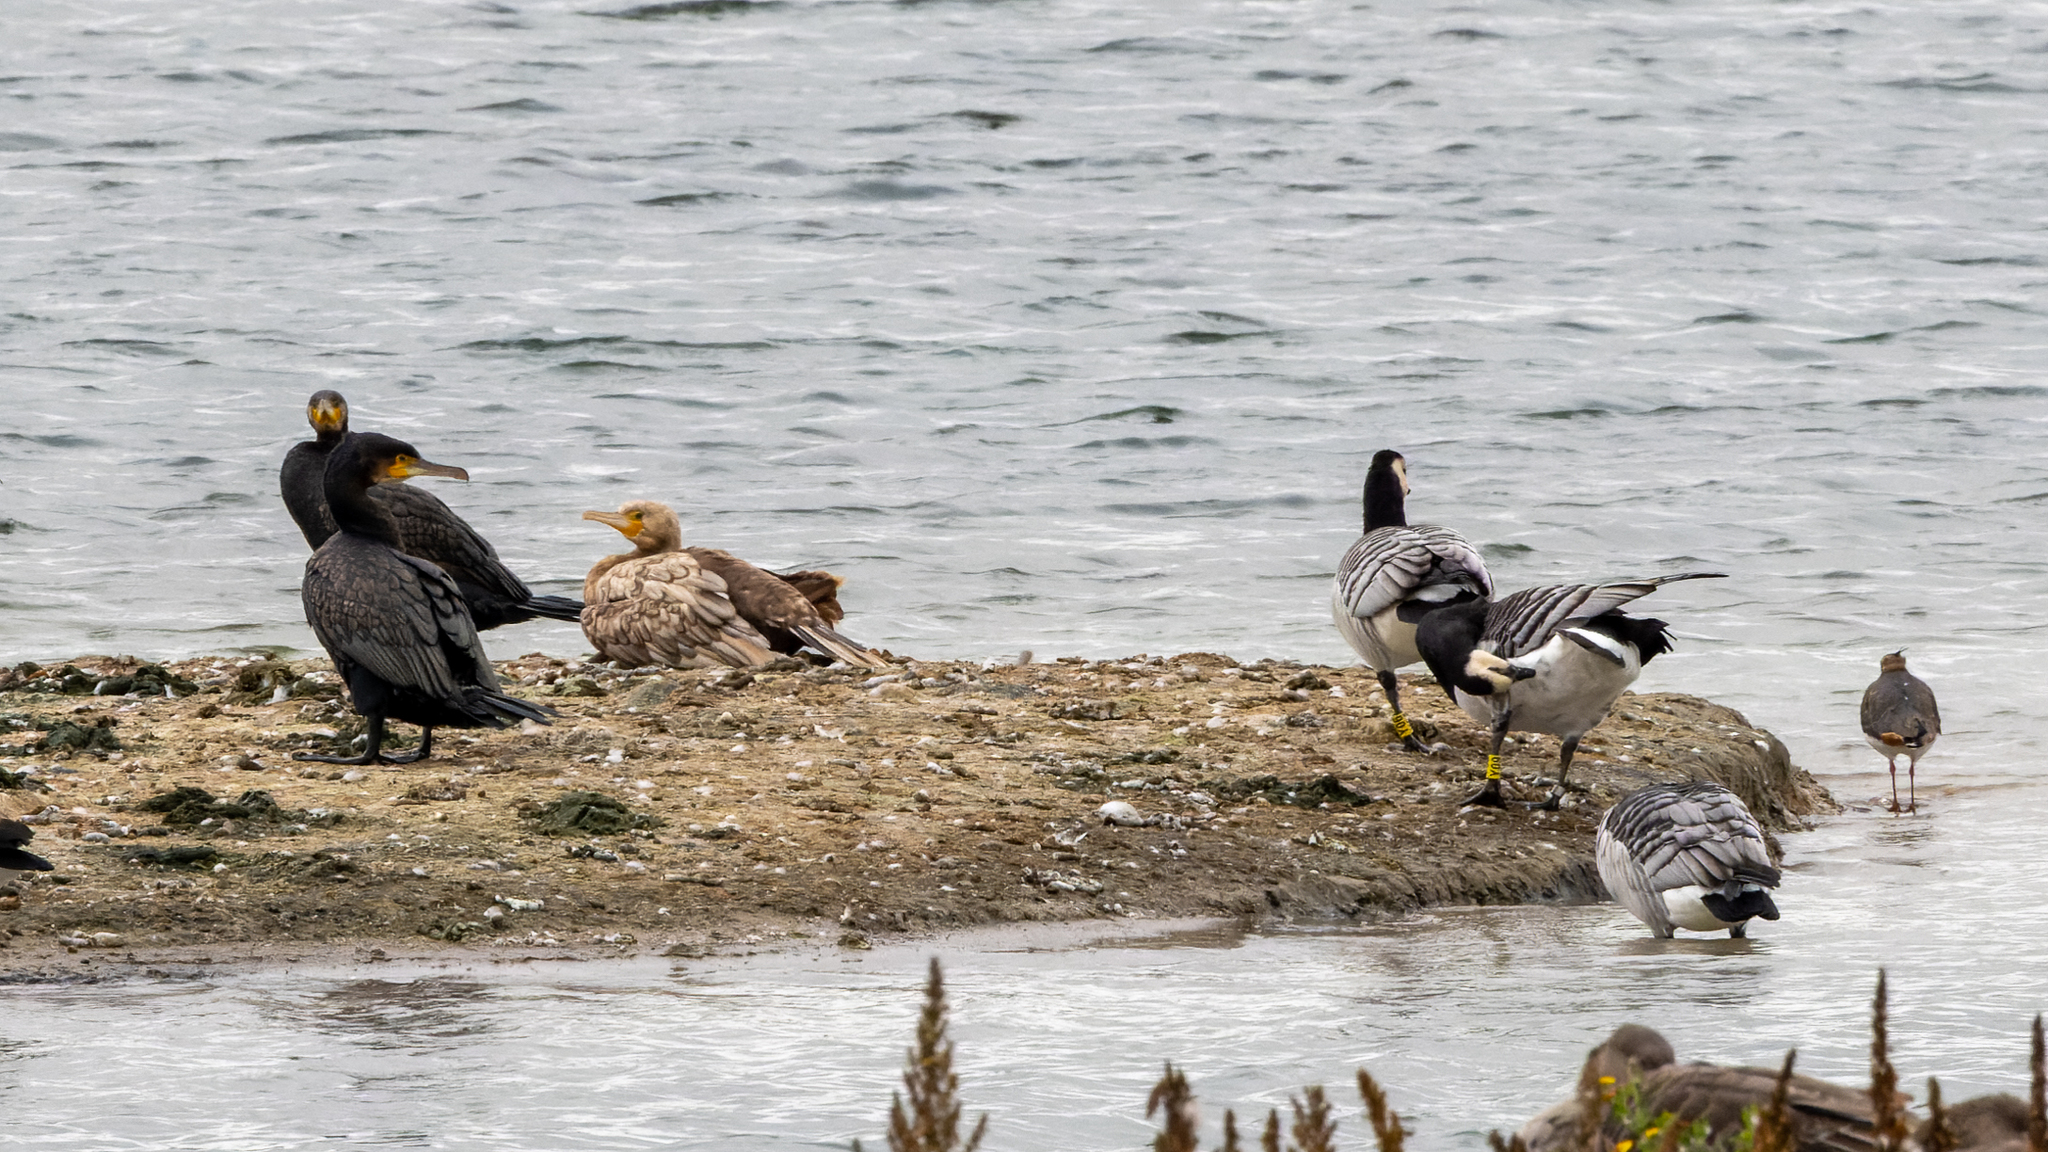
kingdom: Animalia
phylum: Chordata
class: Aves
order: Suliformes
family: Phalacrocoracidae
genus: Phalacrocorax
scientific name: Phalacrocorax carbo
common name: Great cormorant
